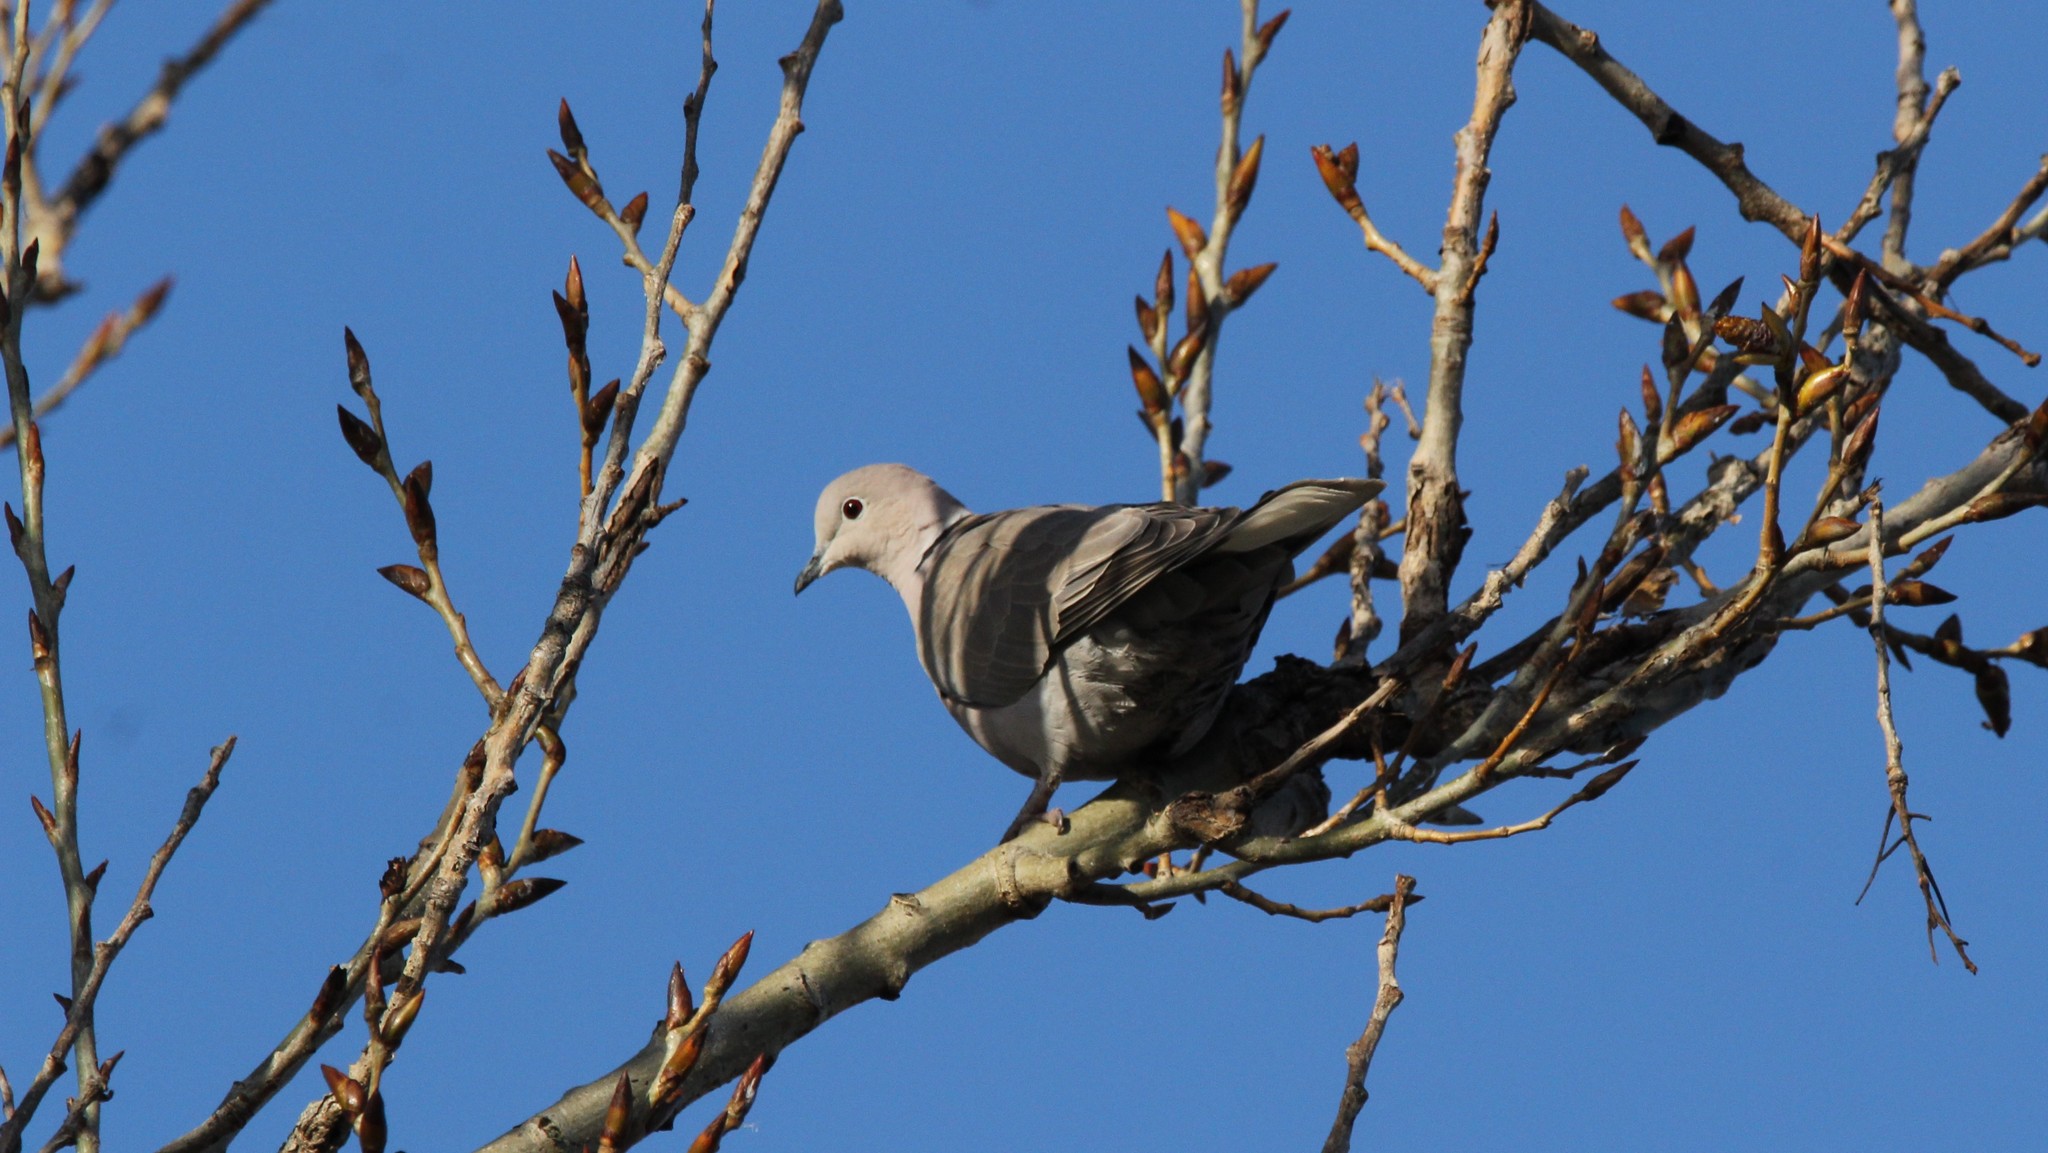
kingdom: Animalia
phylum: Chordata
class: Aves
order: Columbiformes
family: Columbidae
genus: Streptopelia
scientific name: Streptopelia decaocto
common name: Eurasian collared dove
